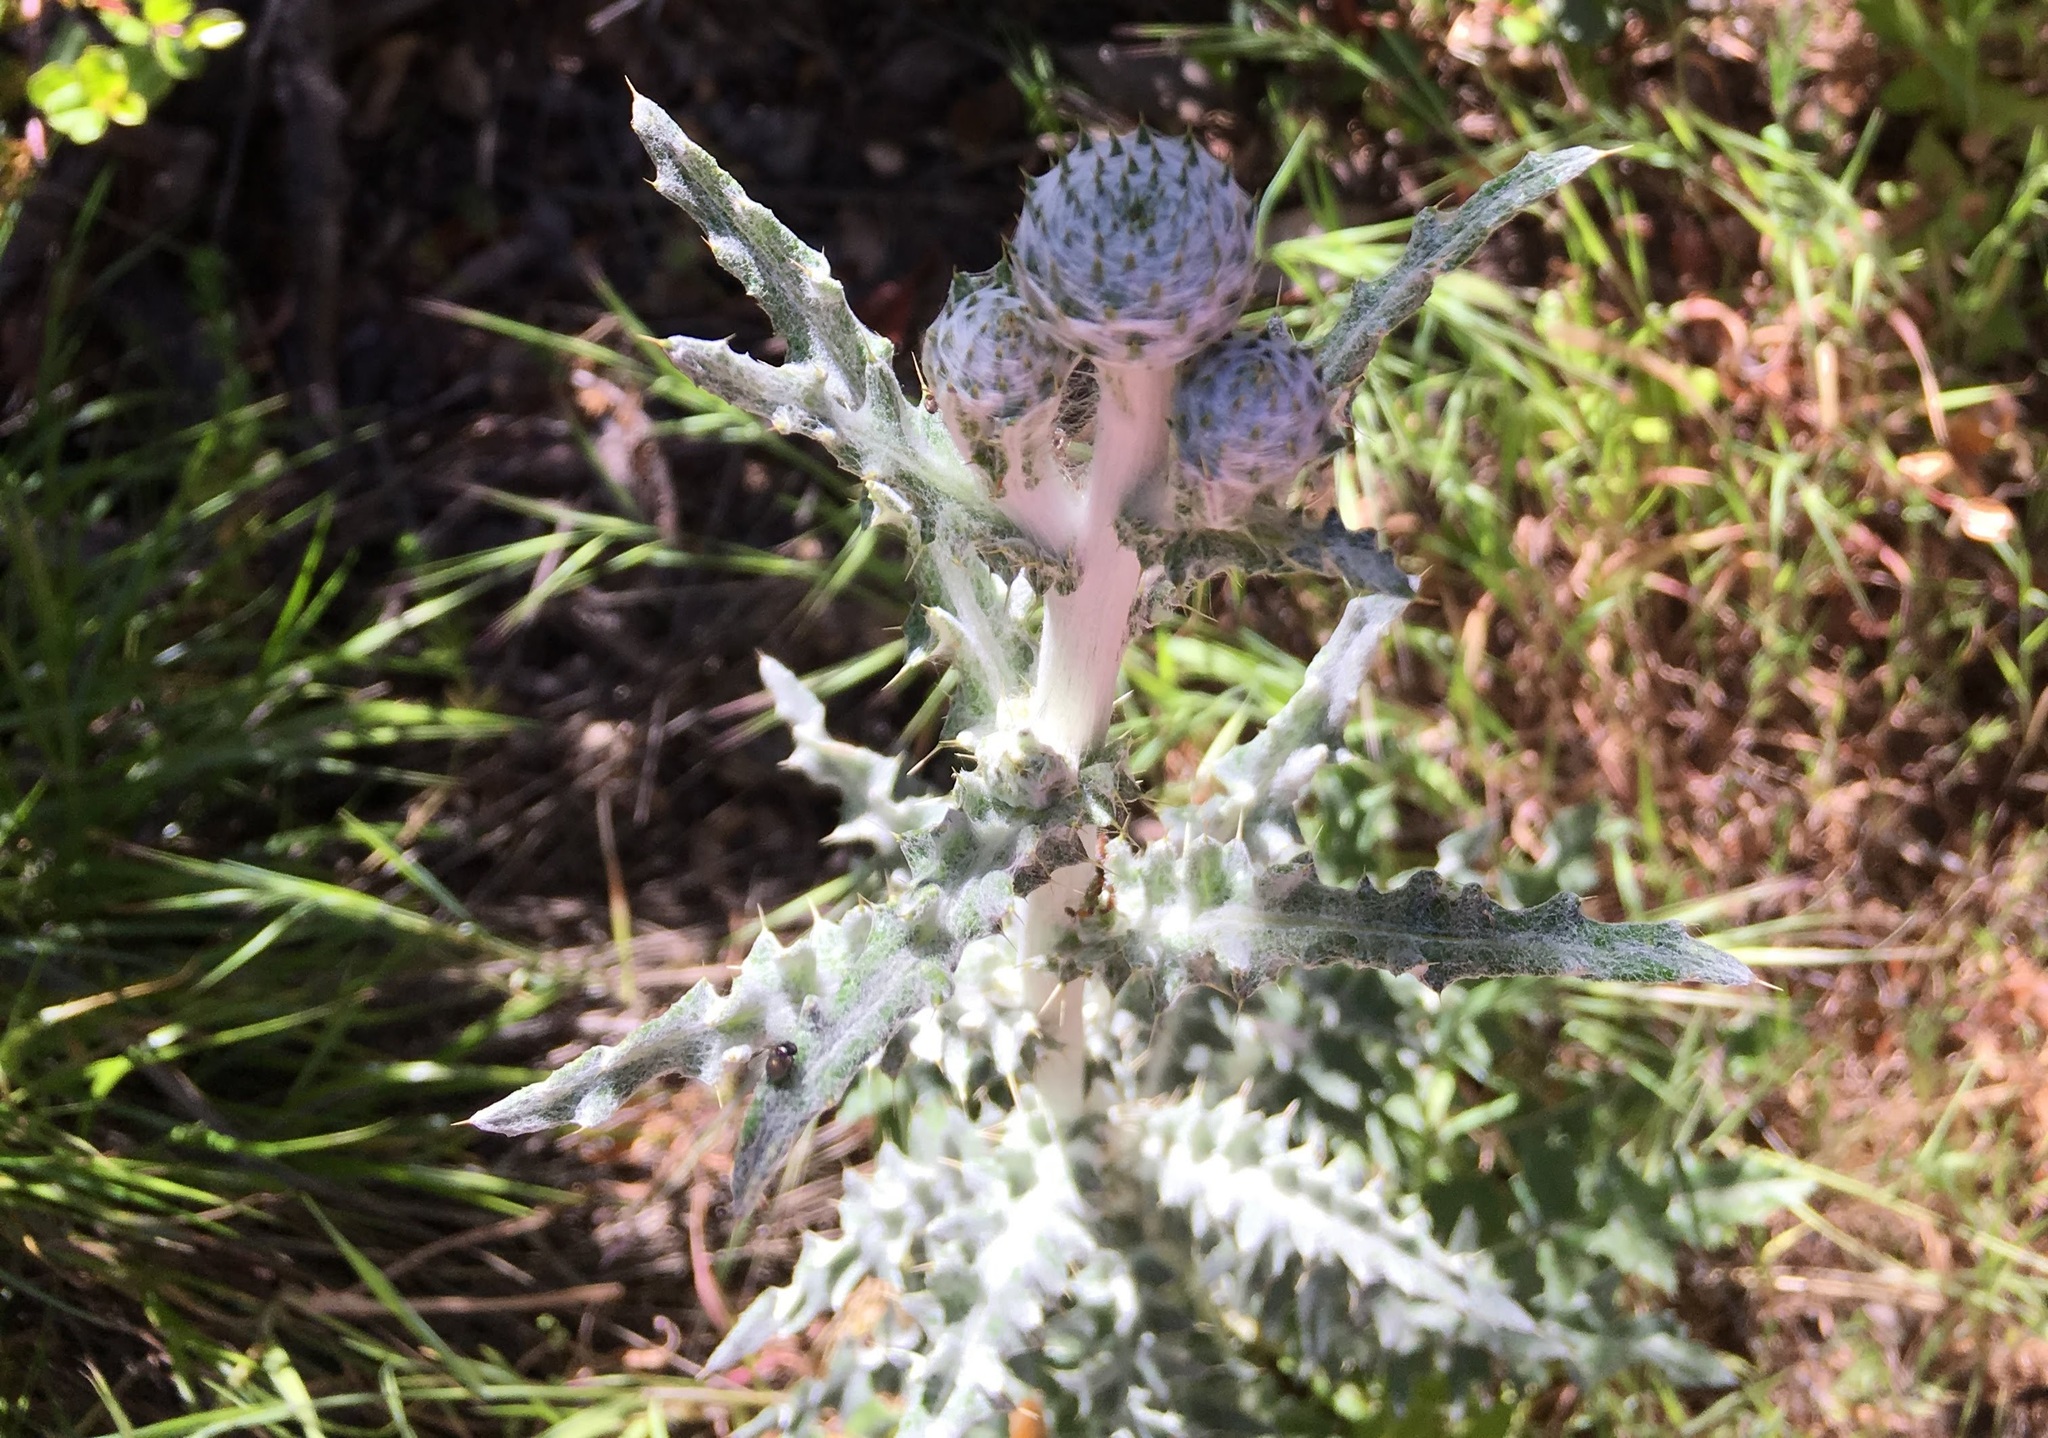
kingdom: Plantae
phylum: Tracheophyta
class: Magnoliopsida
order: Asterales
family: Asteraceae
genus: Cirsium
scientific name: Cirsium occidentale
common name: Western thistle
